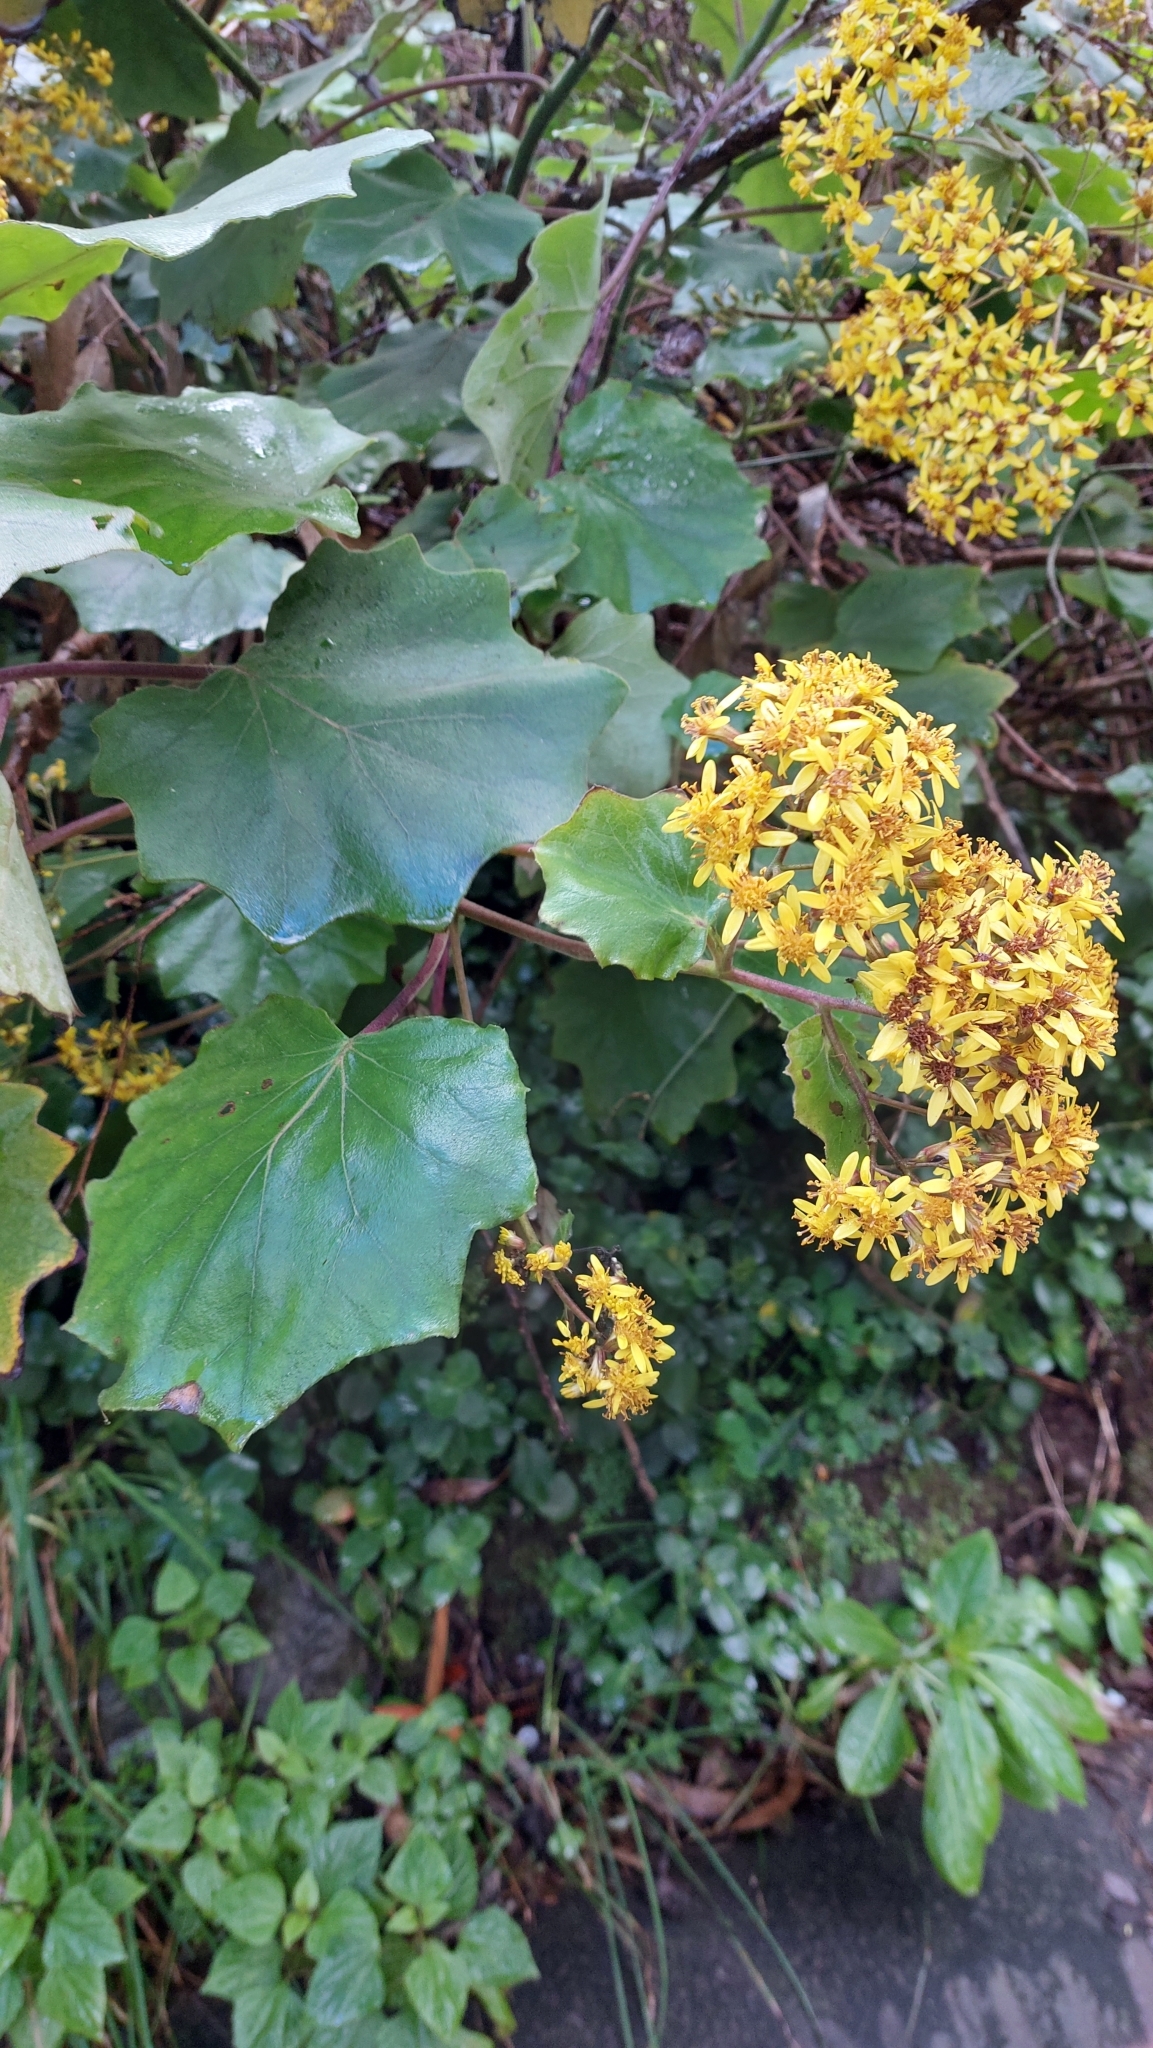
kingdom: Plantae
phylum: Tracheophyta
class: Magnoliopsida
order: Asterales
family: Asteraceae
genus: Roldana
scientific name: Roldana petasitis
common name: California-geranium
